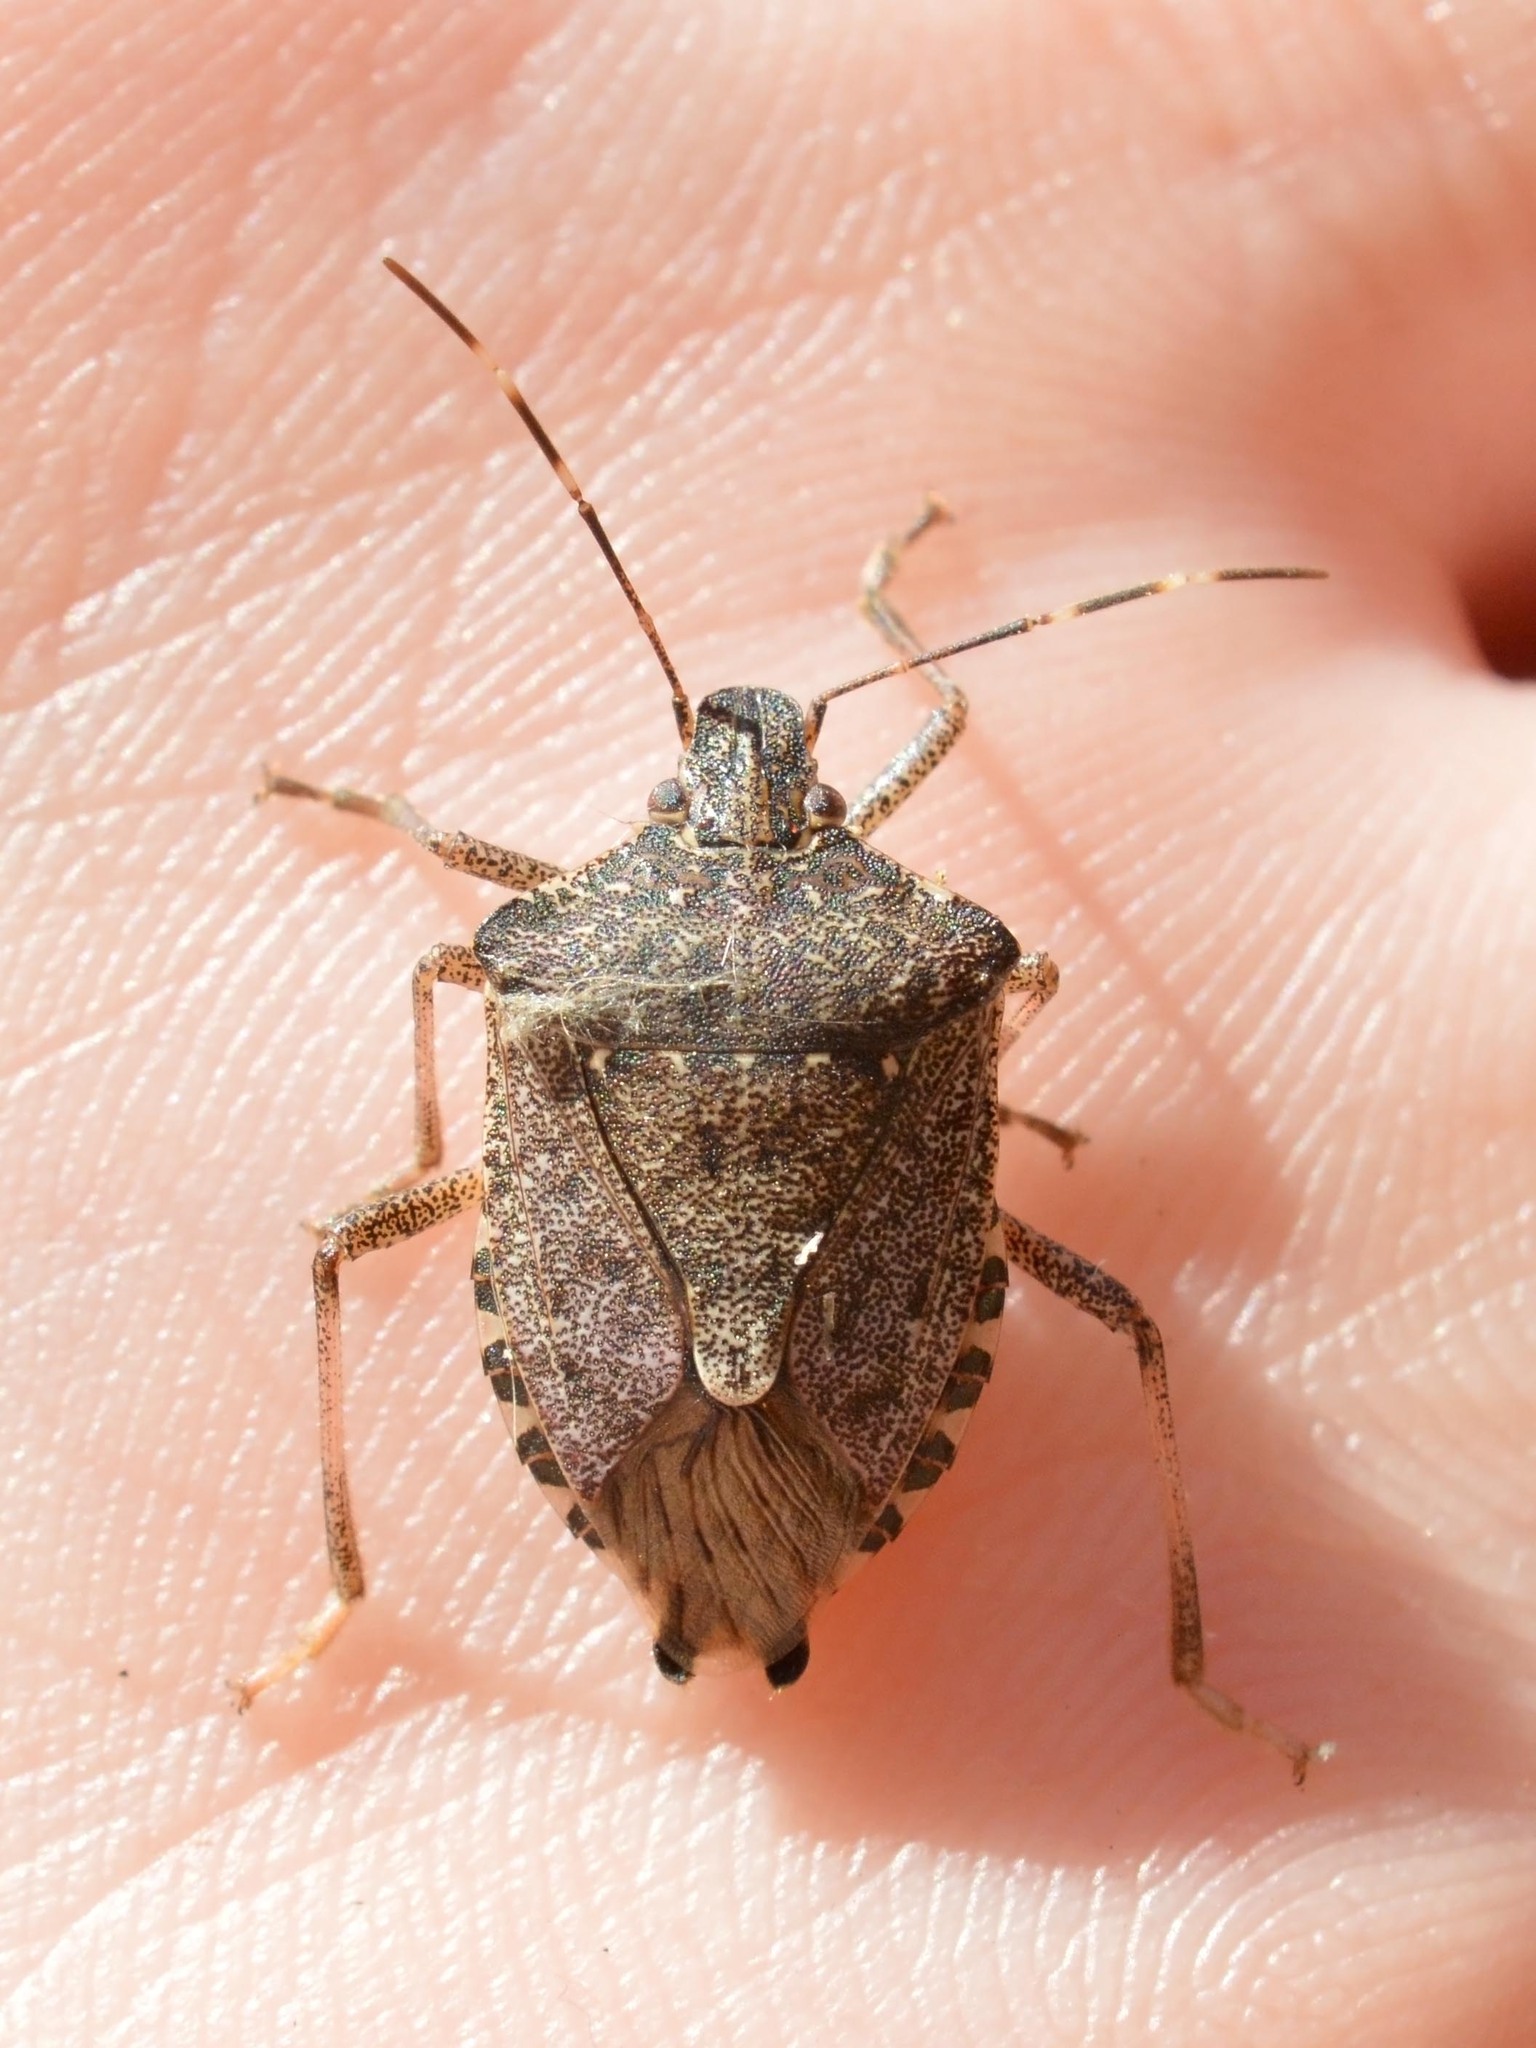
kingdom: Animalia
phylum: Arthropoda
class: Insecta
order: Hemiptera
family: Pentatomidae
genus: Halyomorpha
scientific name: Halyomorpha halys
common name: Brown marmorated stink bug
